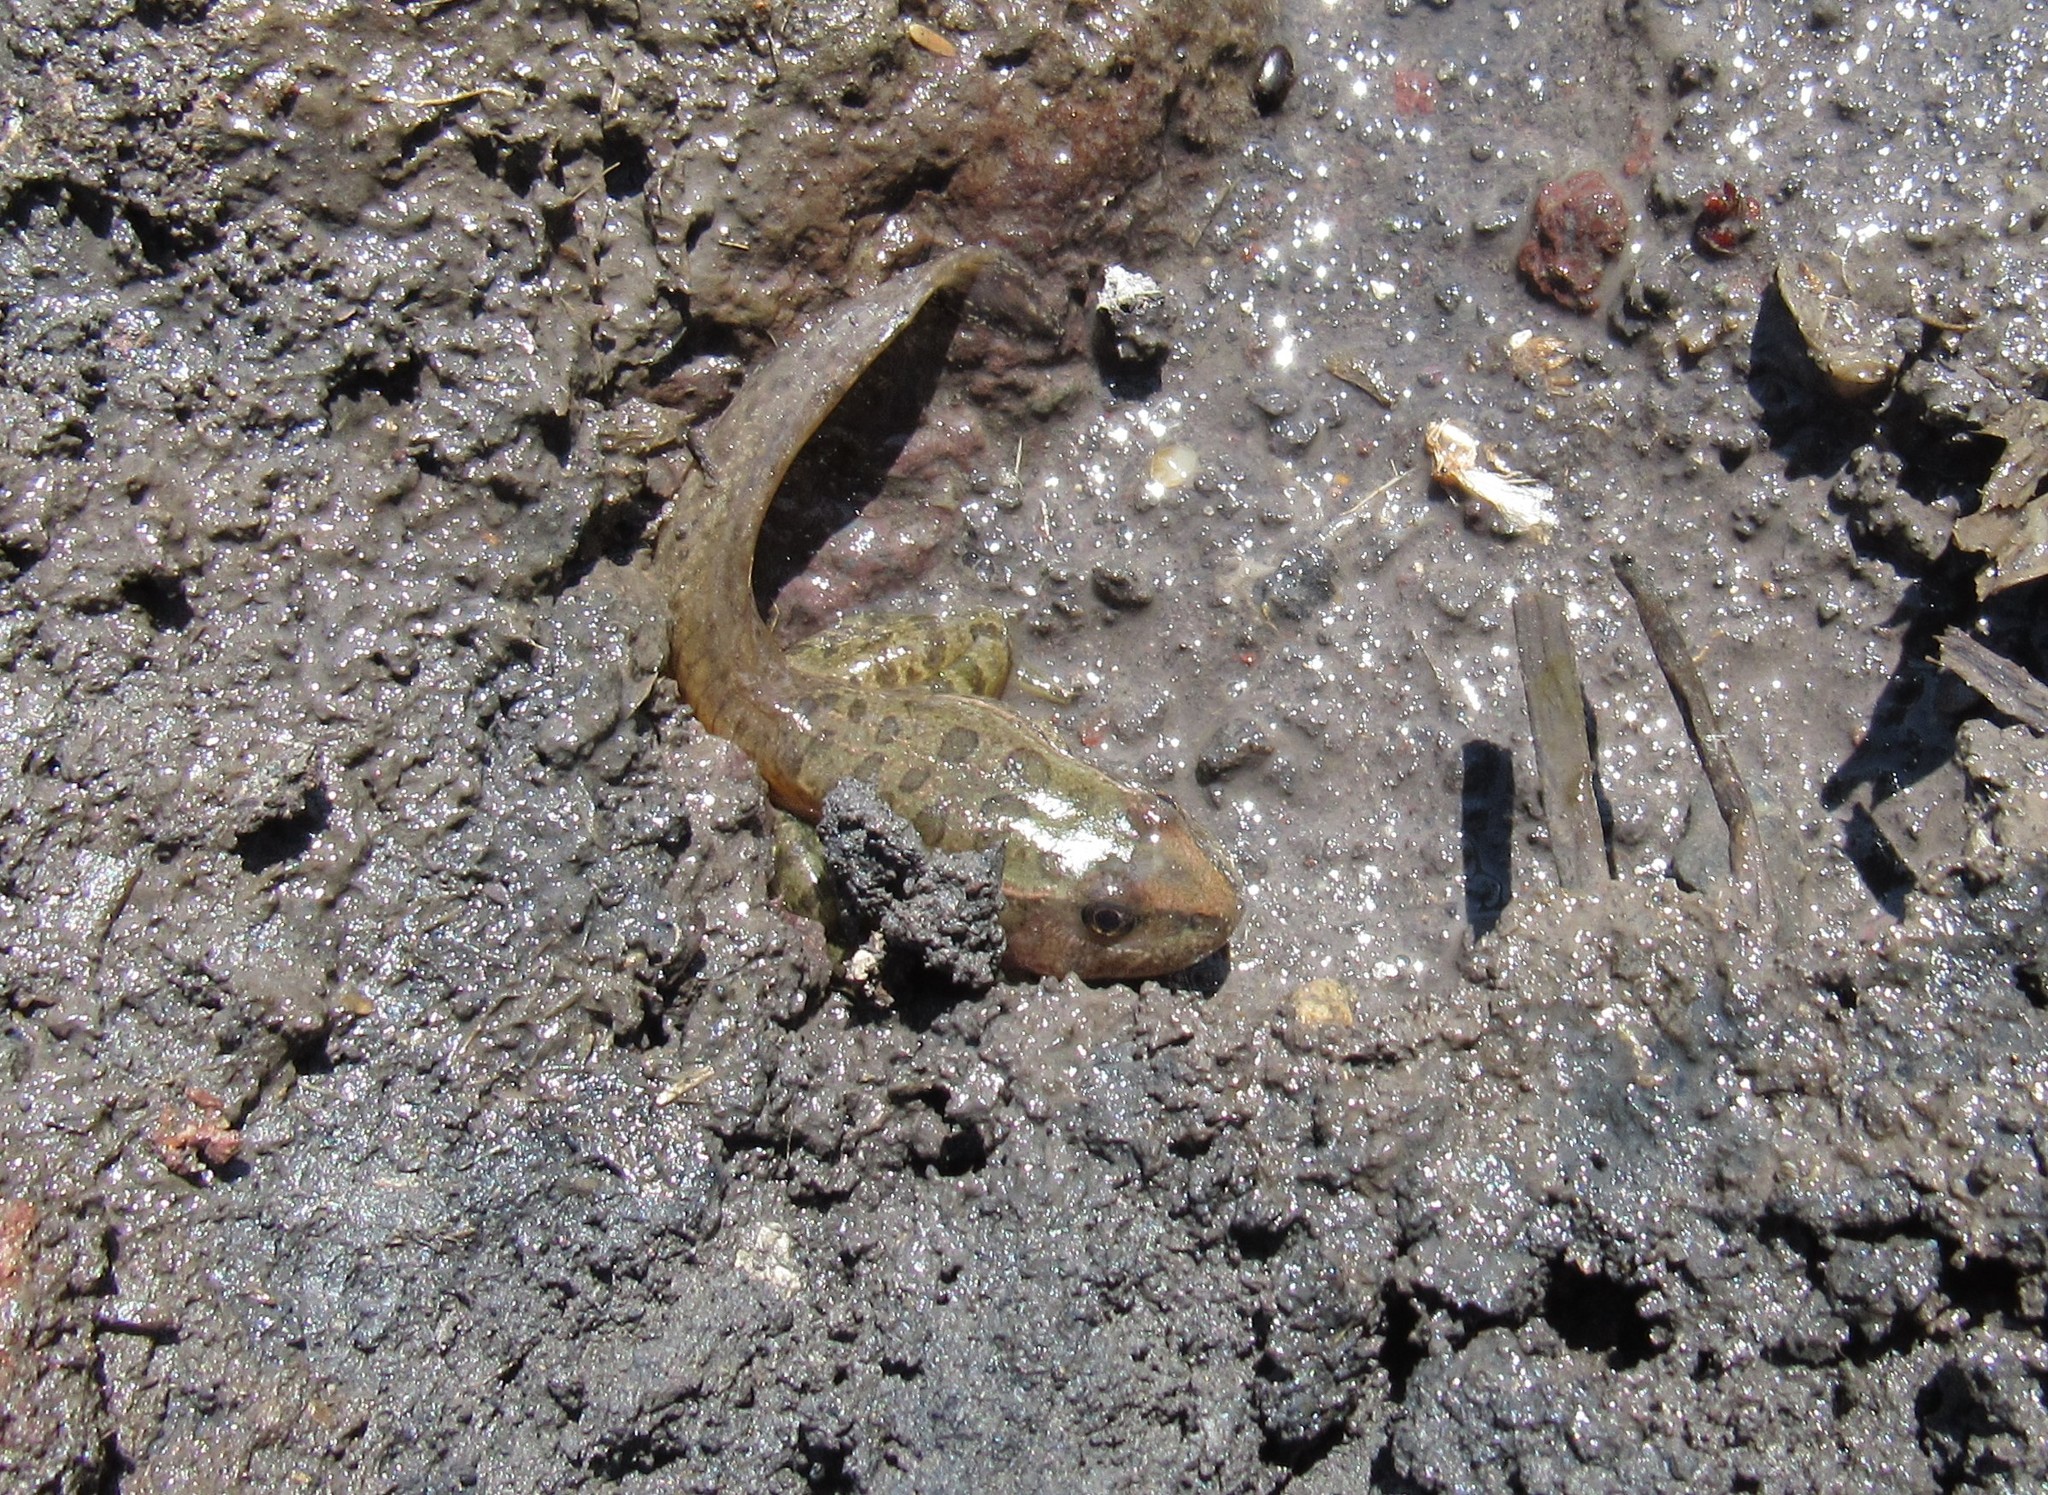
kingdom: Animalia
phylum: Chordata
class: Amphibia
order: Anura
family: Ranidae
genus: Lithobates
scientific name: Lithobates neovolcanicus
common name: Transverse volcanic leopard frog
